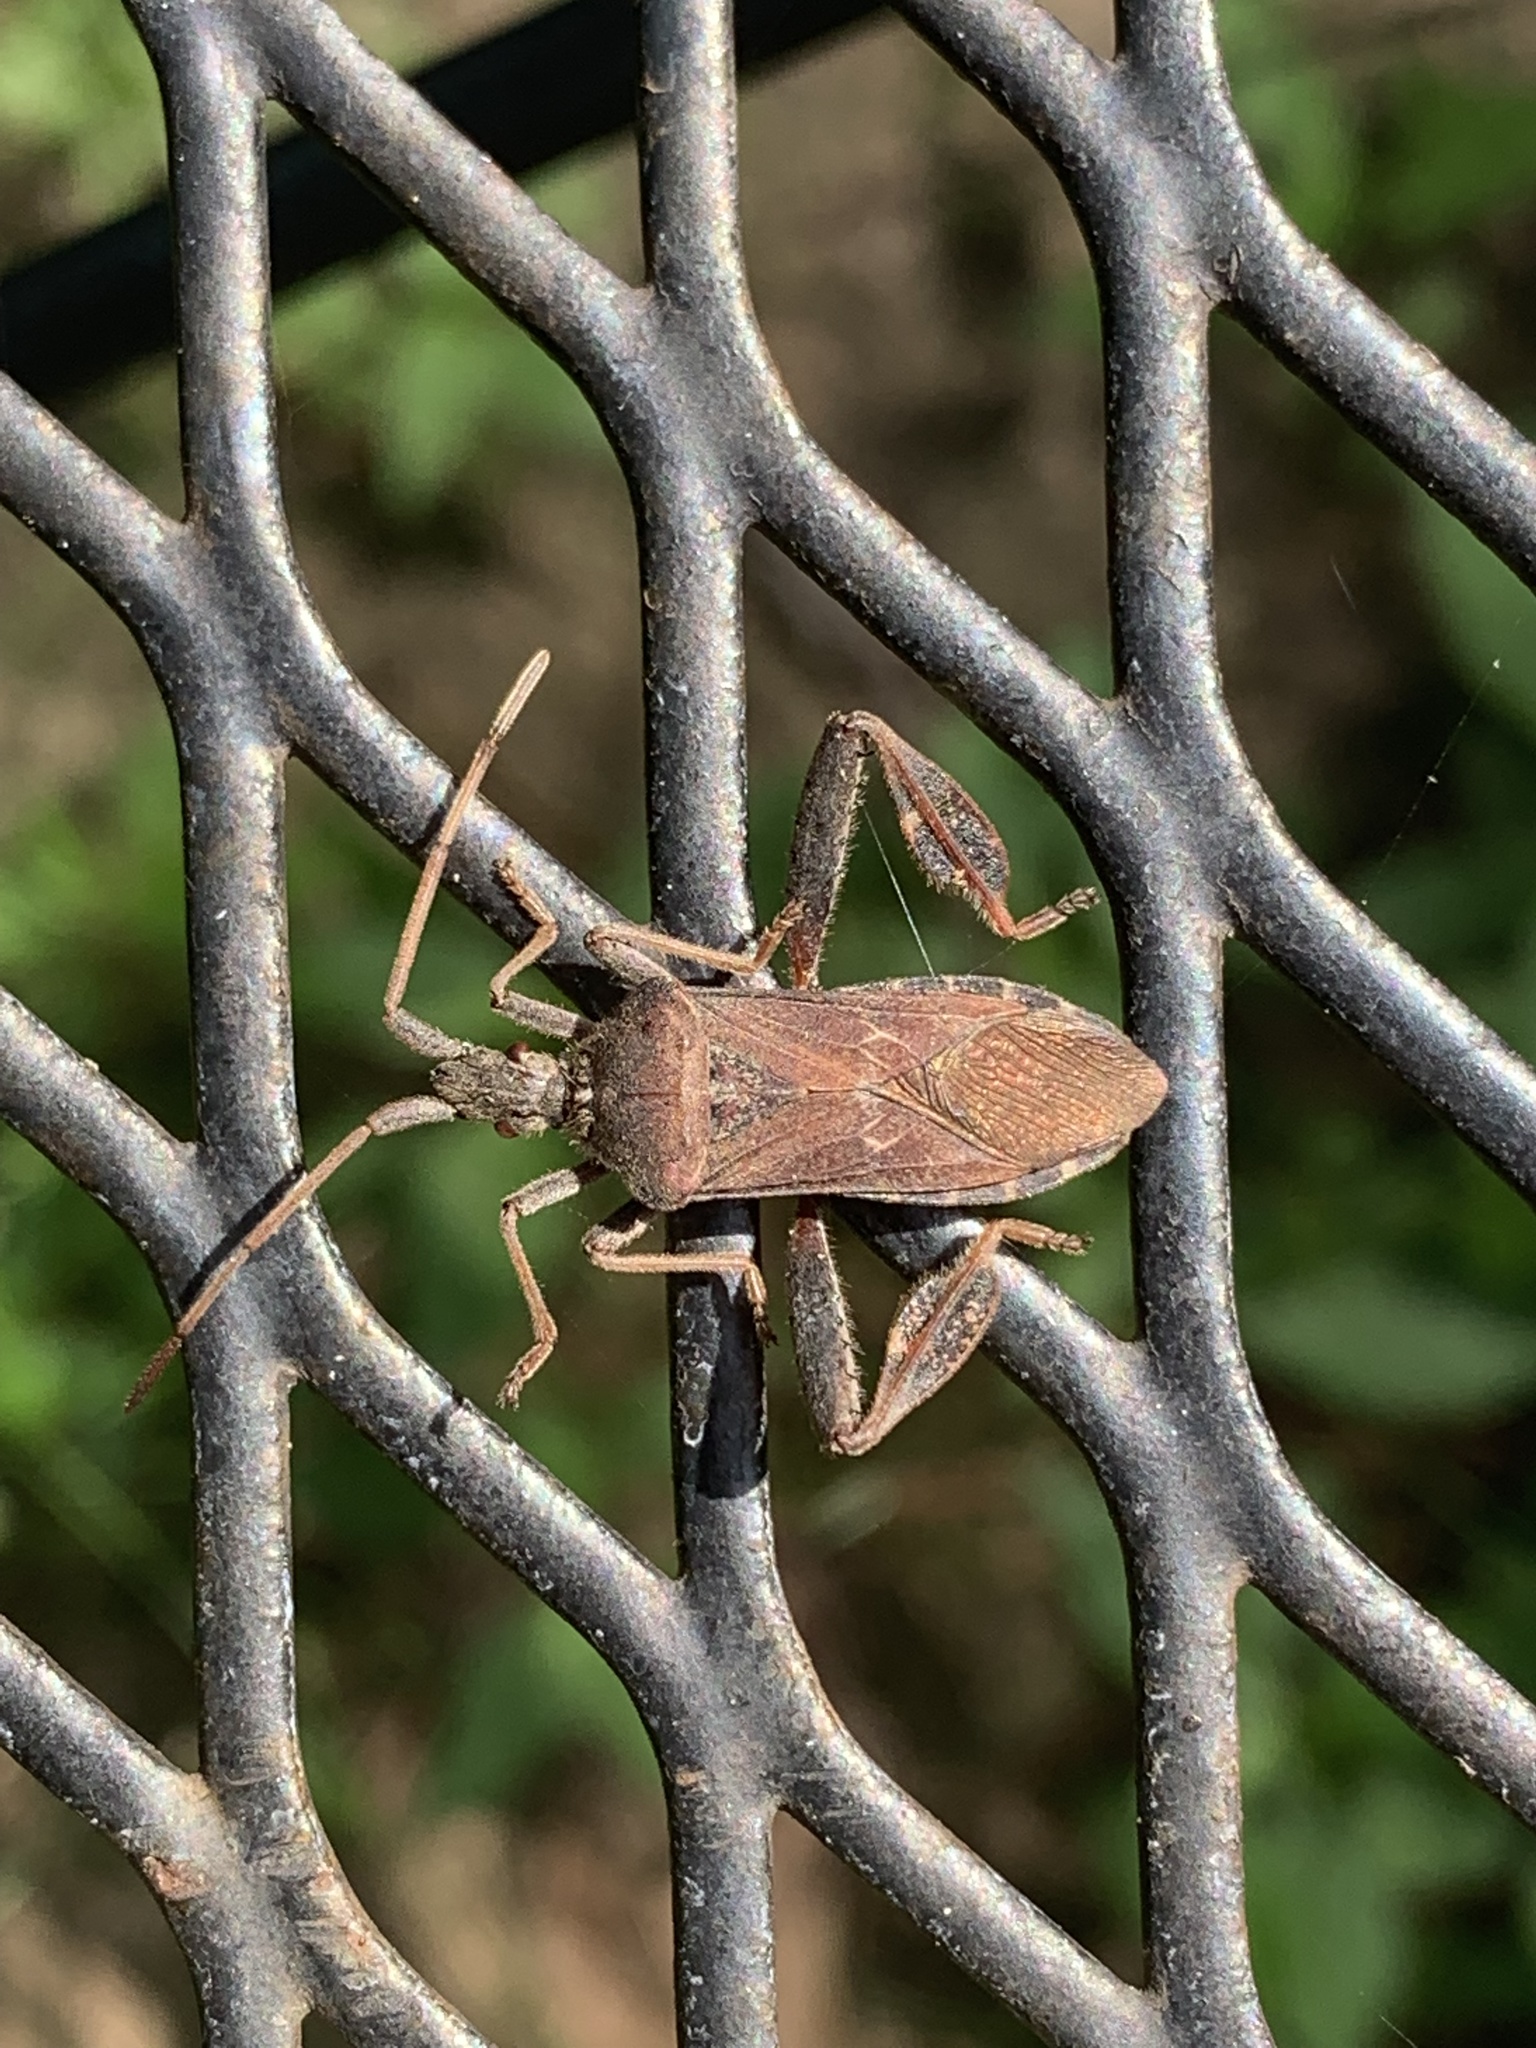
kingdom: Animalia
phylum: Arthropoda
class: Insecta
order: Hemiptera
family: Coreidae
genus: Leptoglossus
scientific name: Leptoglossus corculus
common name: Southern pine seed bug
